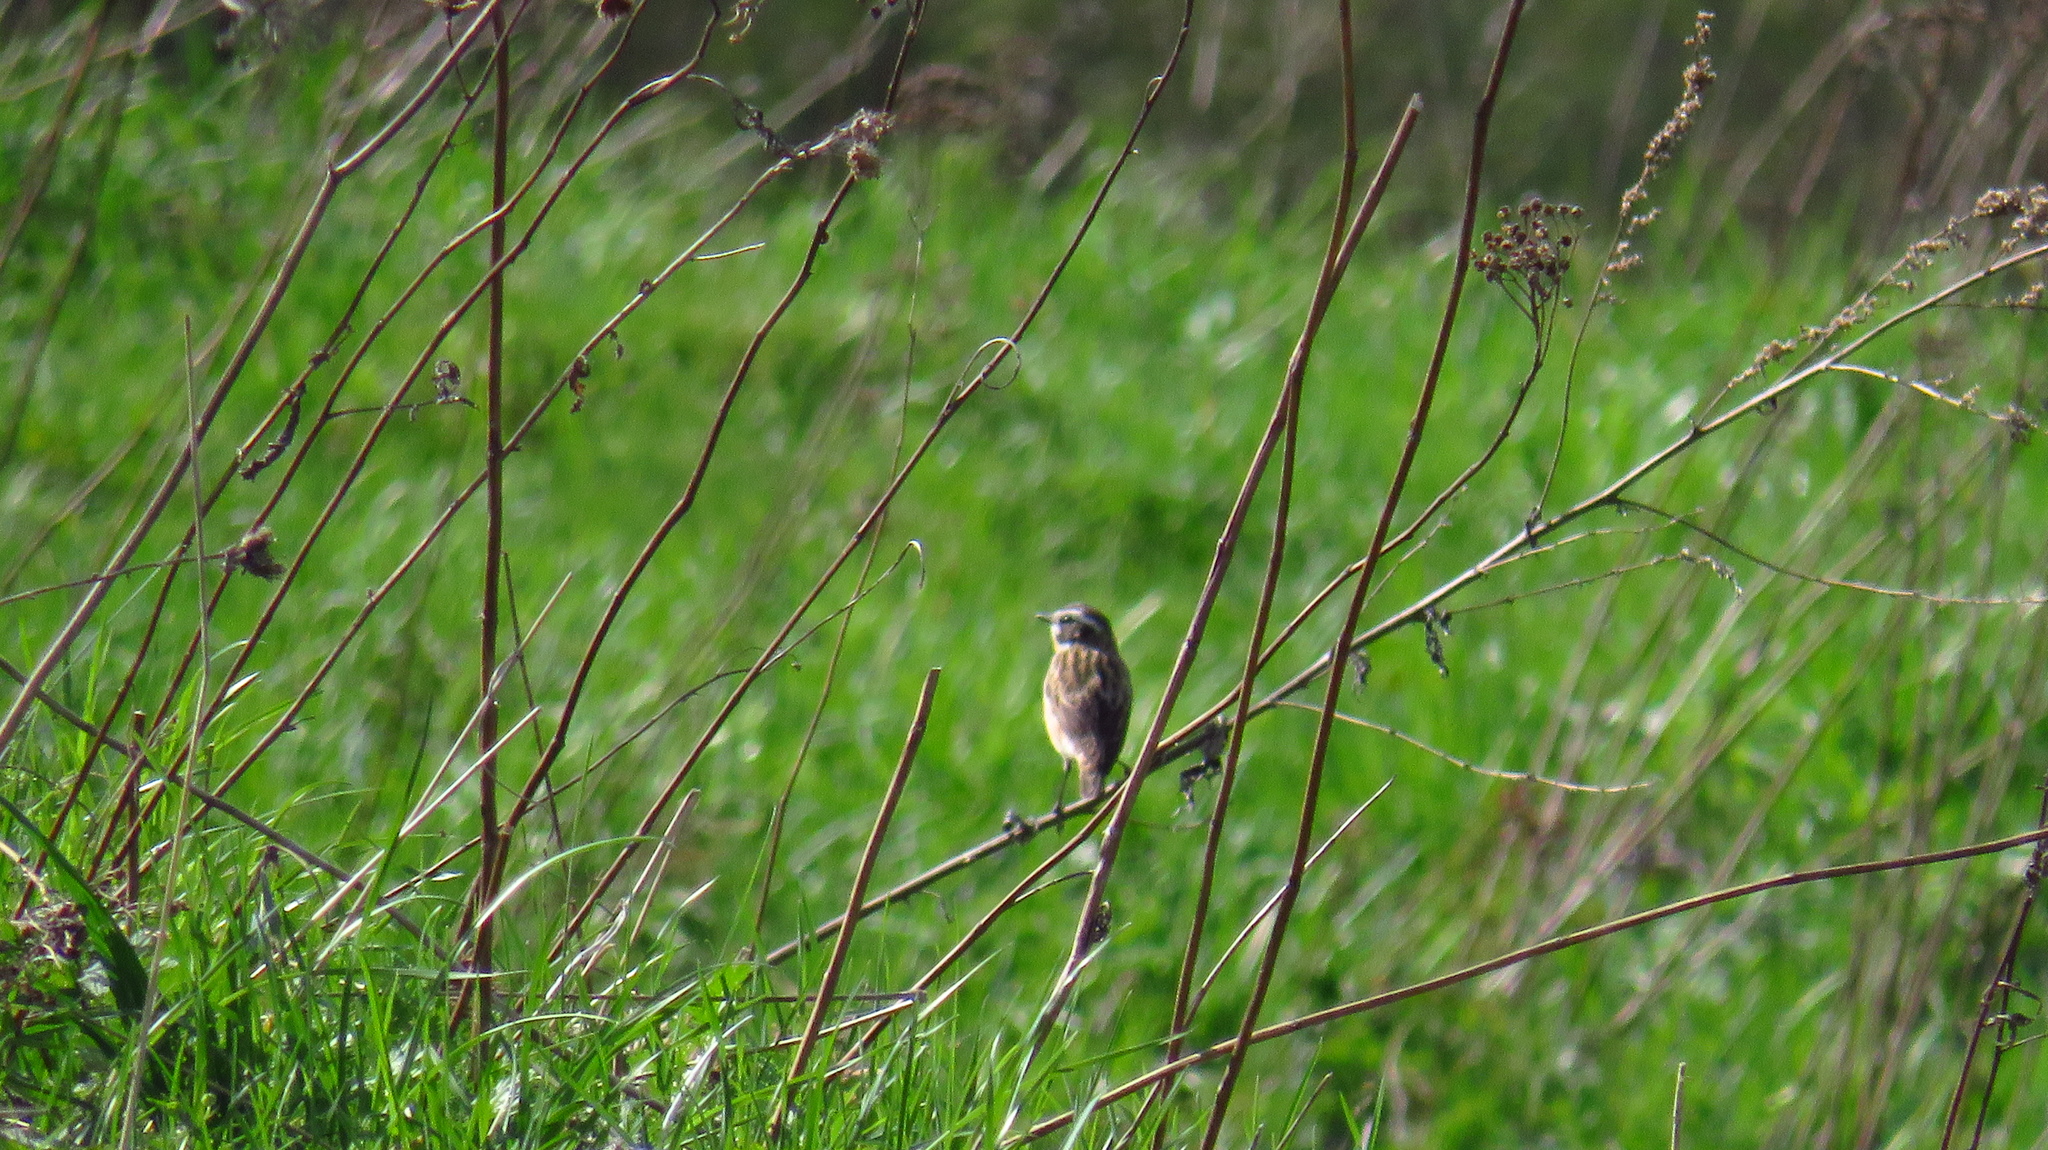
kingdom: Animalia
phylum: Chordata
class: Aves
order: Passeriformes
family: Muscicapidae
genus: Saxicola
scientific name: Saxicola rubetra
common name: Whinchat
